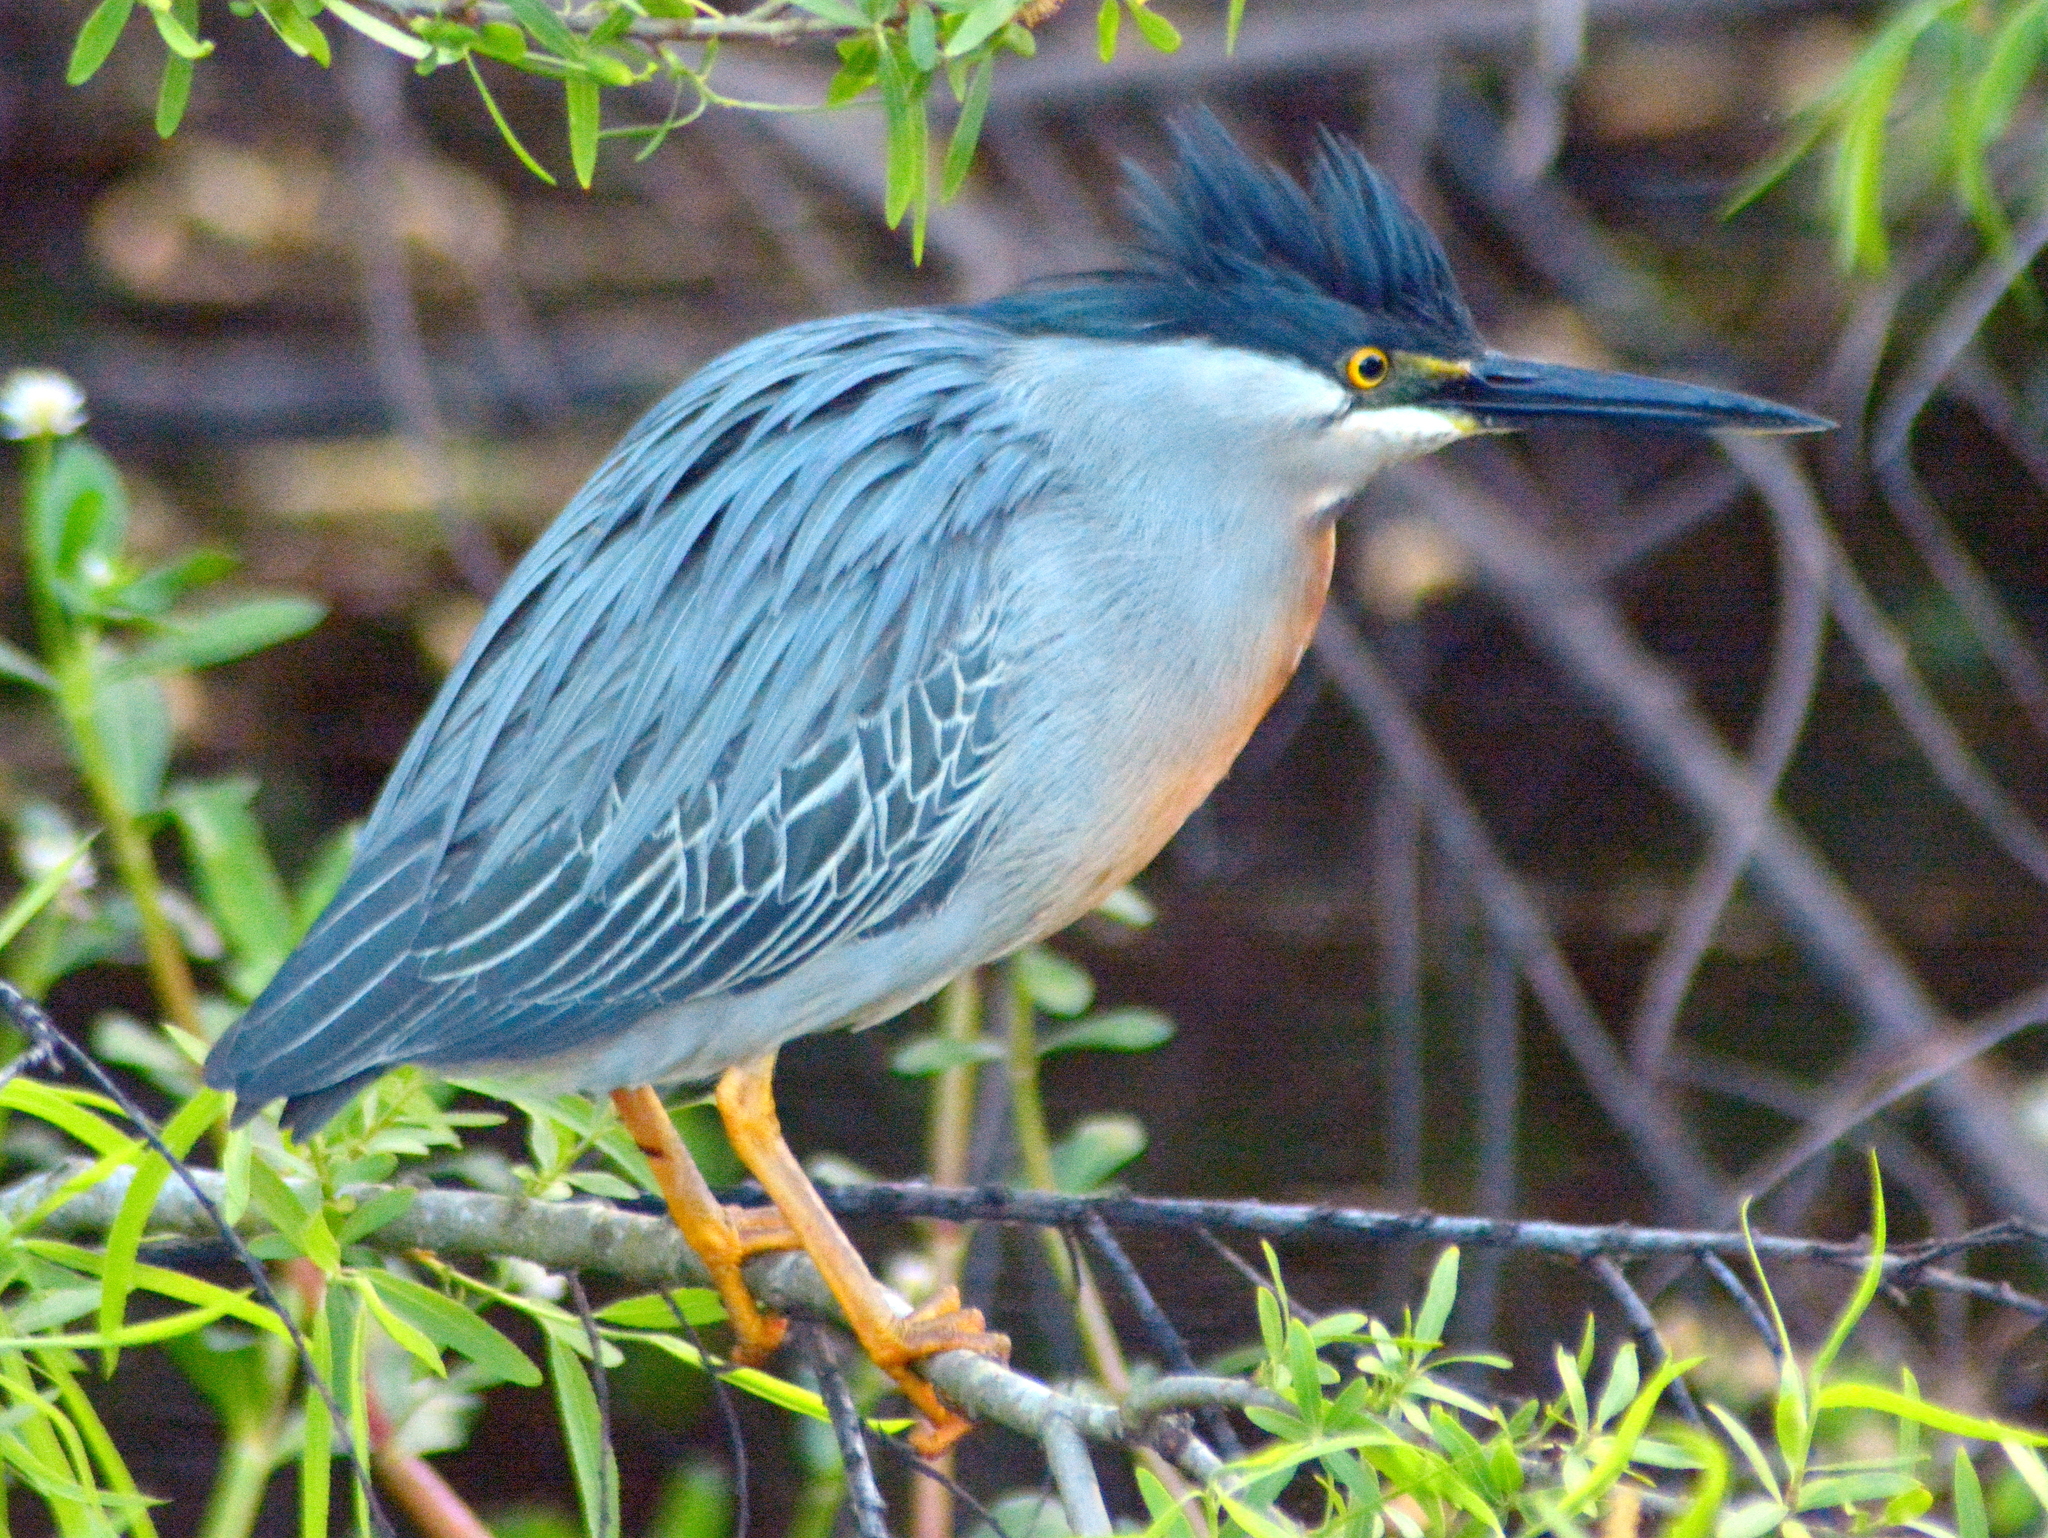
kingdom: Animalia
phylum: Chordata
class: Aves
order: Pelecaniformes
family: Ardeidae
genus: Butorides
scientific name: Butorides striata
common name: Striated heron
